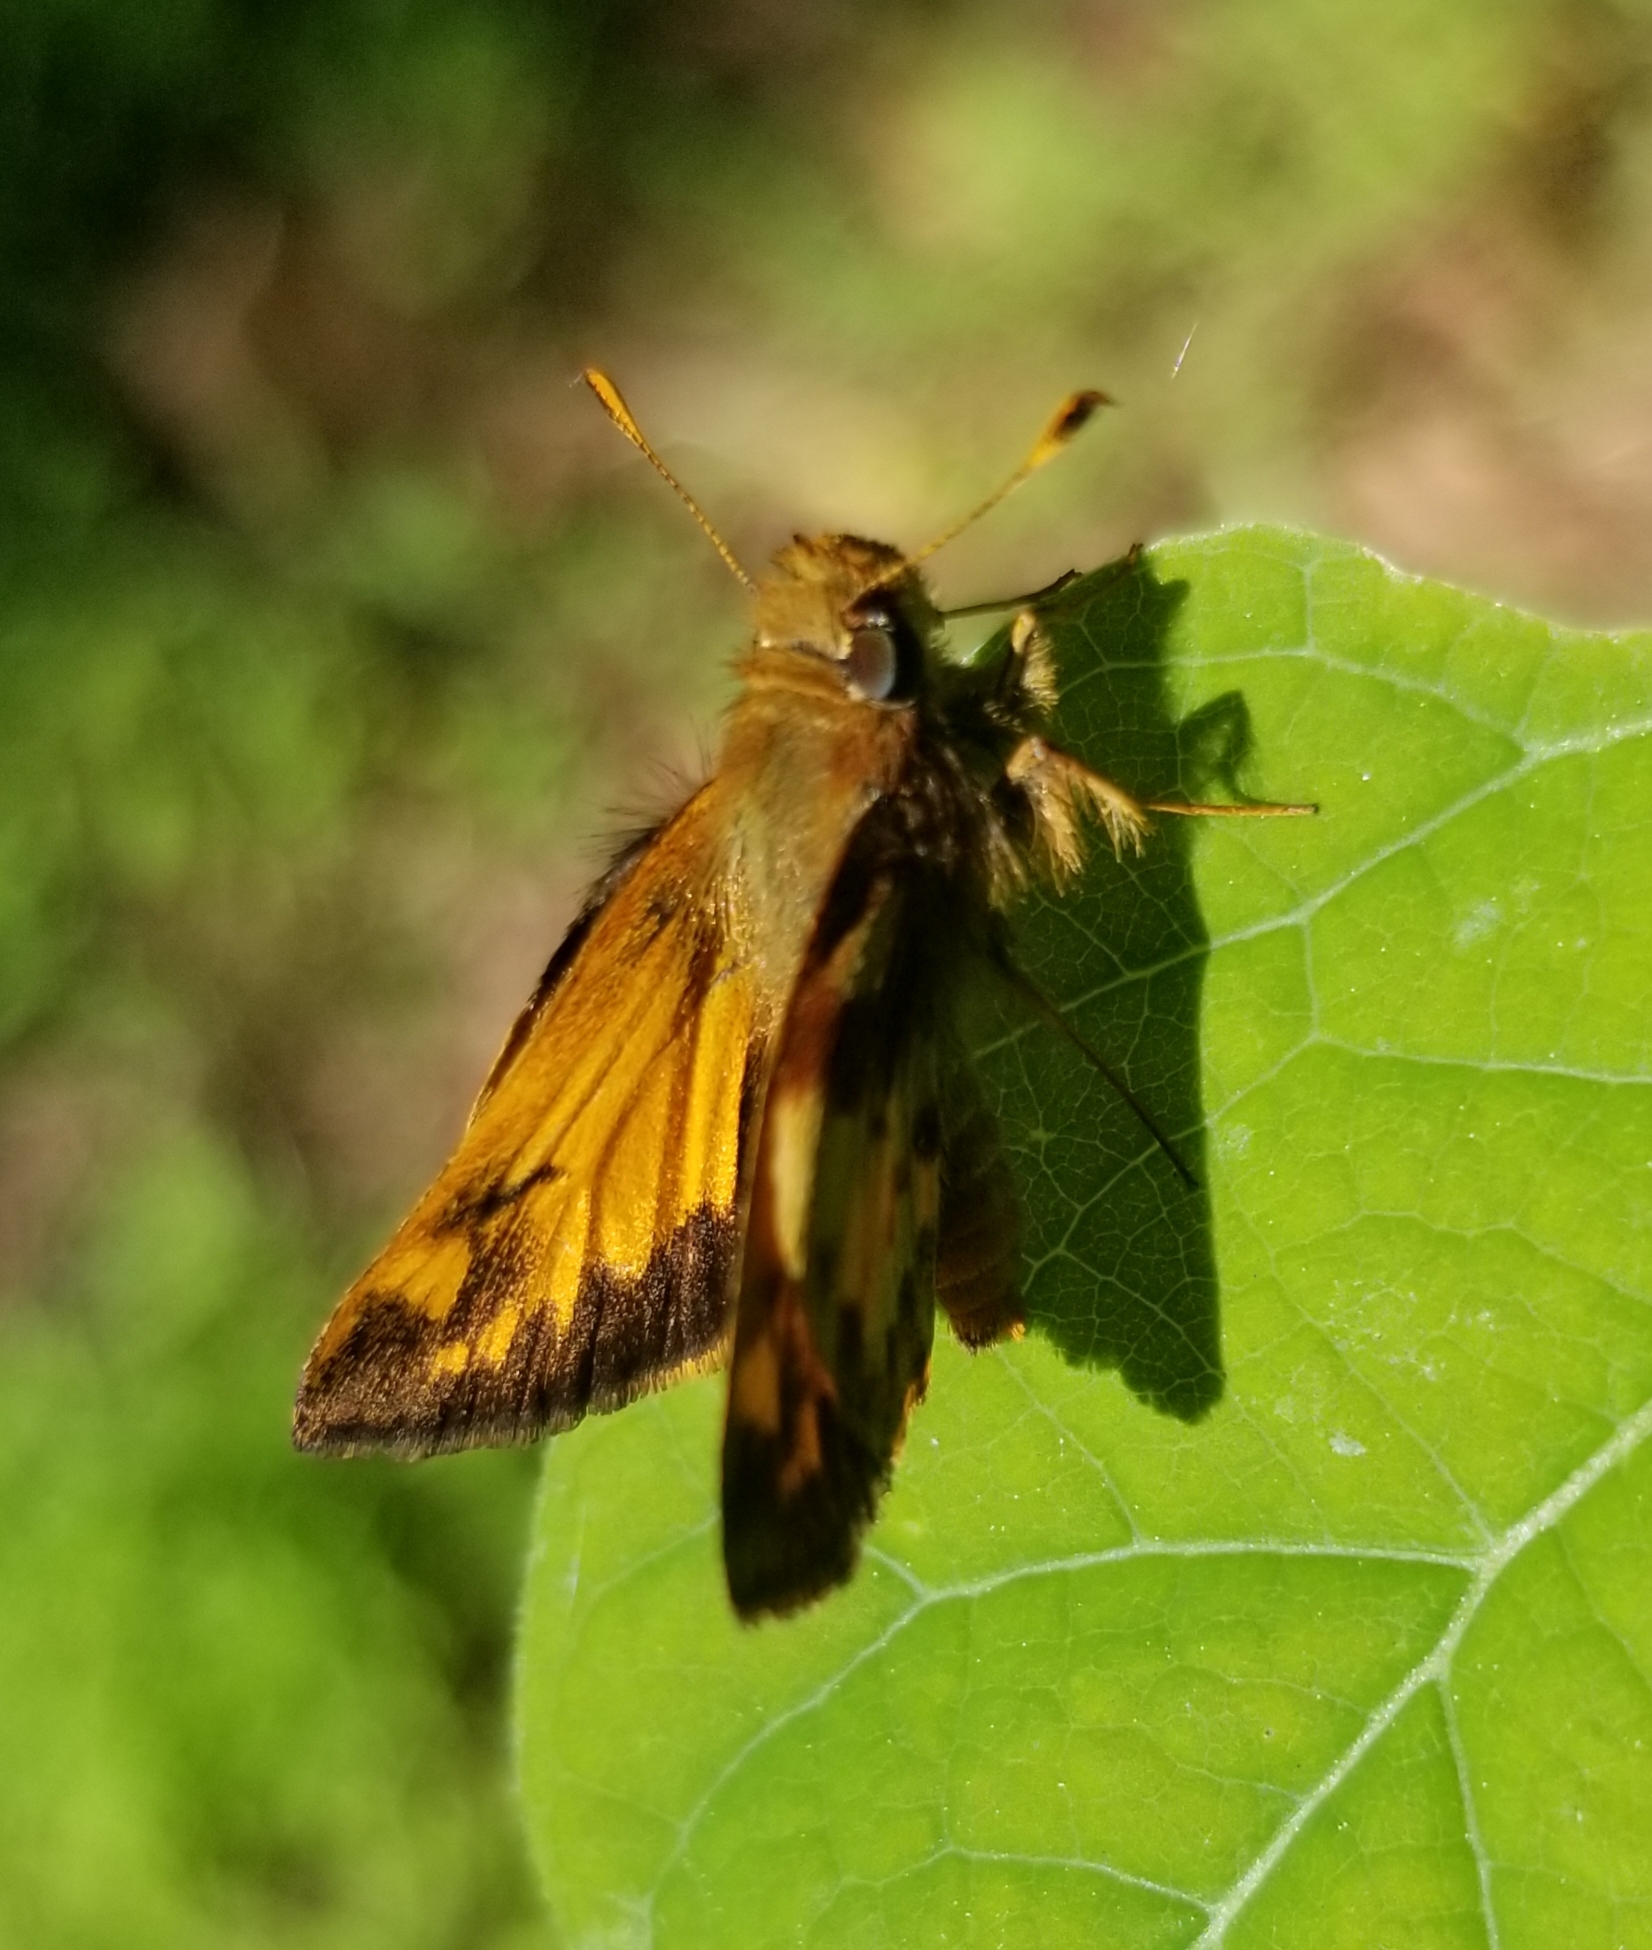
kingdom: Animalia
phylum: Arthropoda
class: Insecta
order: Lepidoptera
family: Hesperiidae
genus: Lon
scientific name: Lon zabulon
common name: Zabulon skipper
